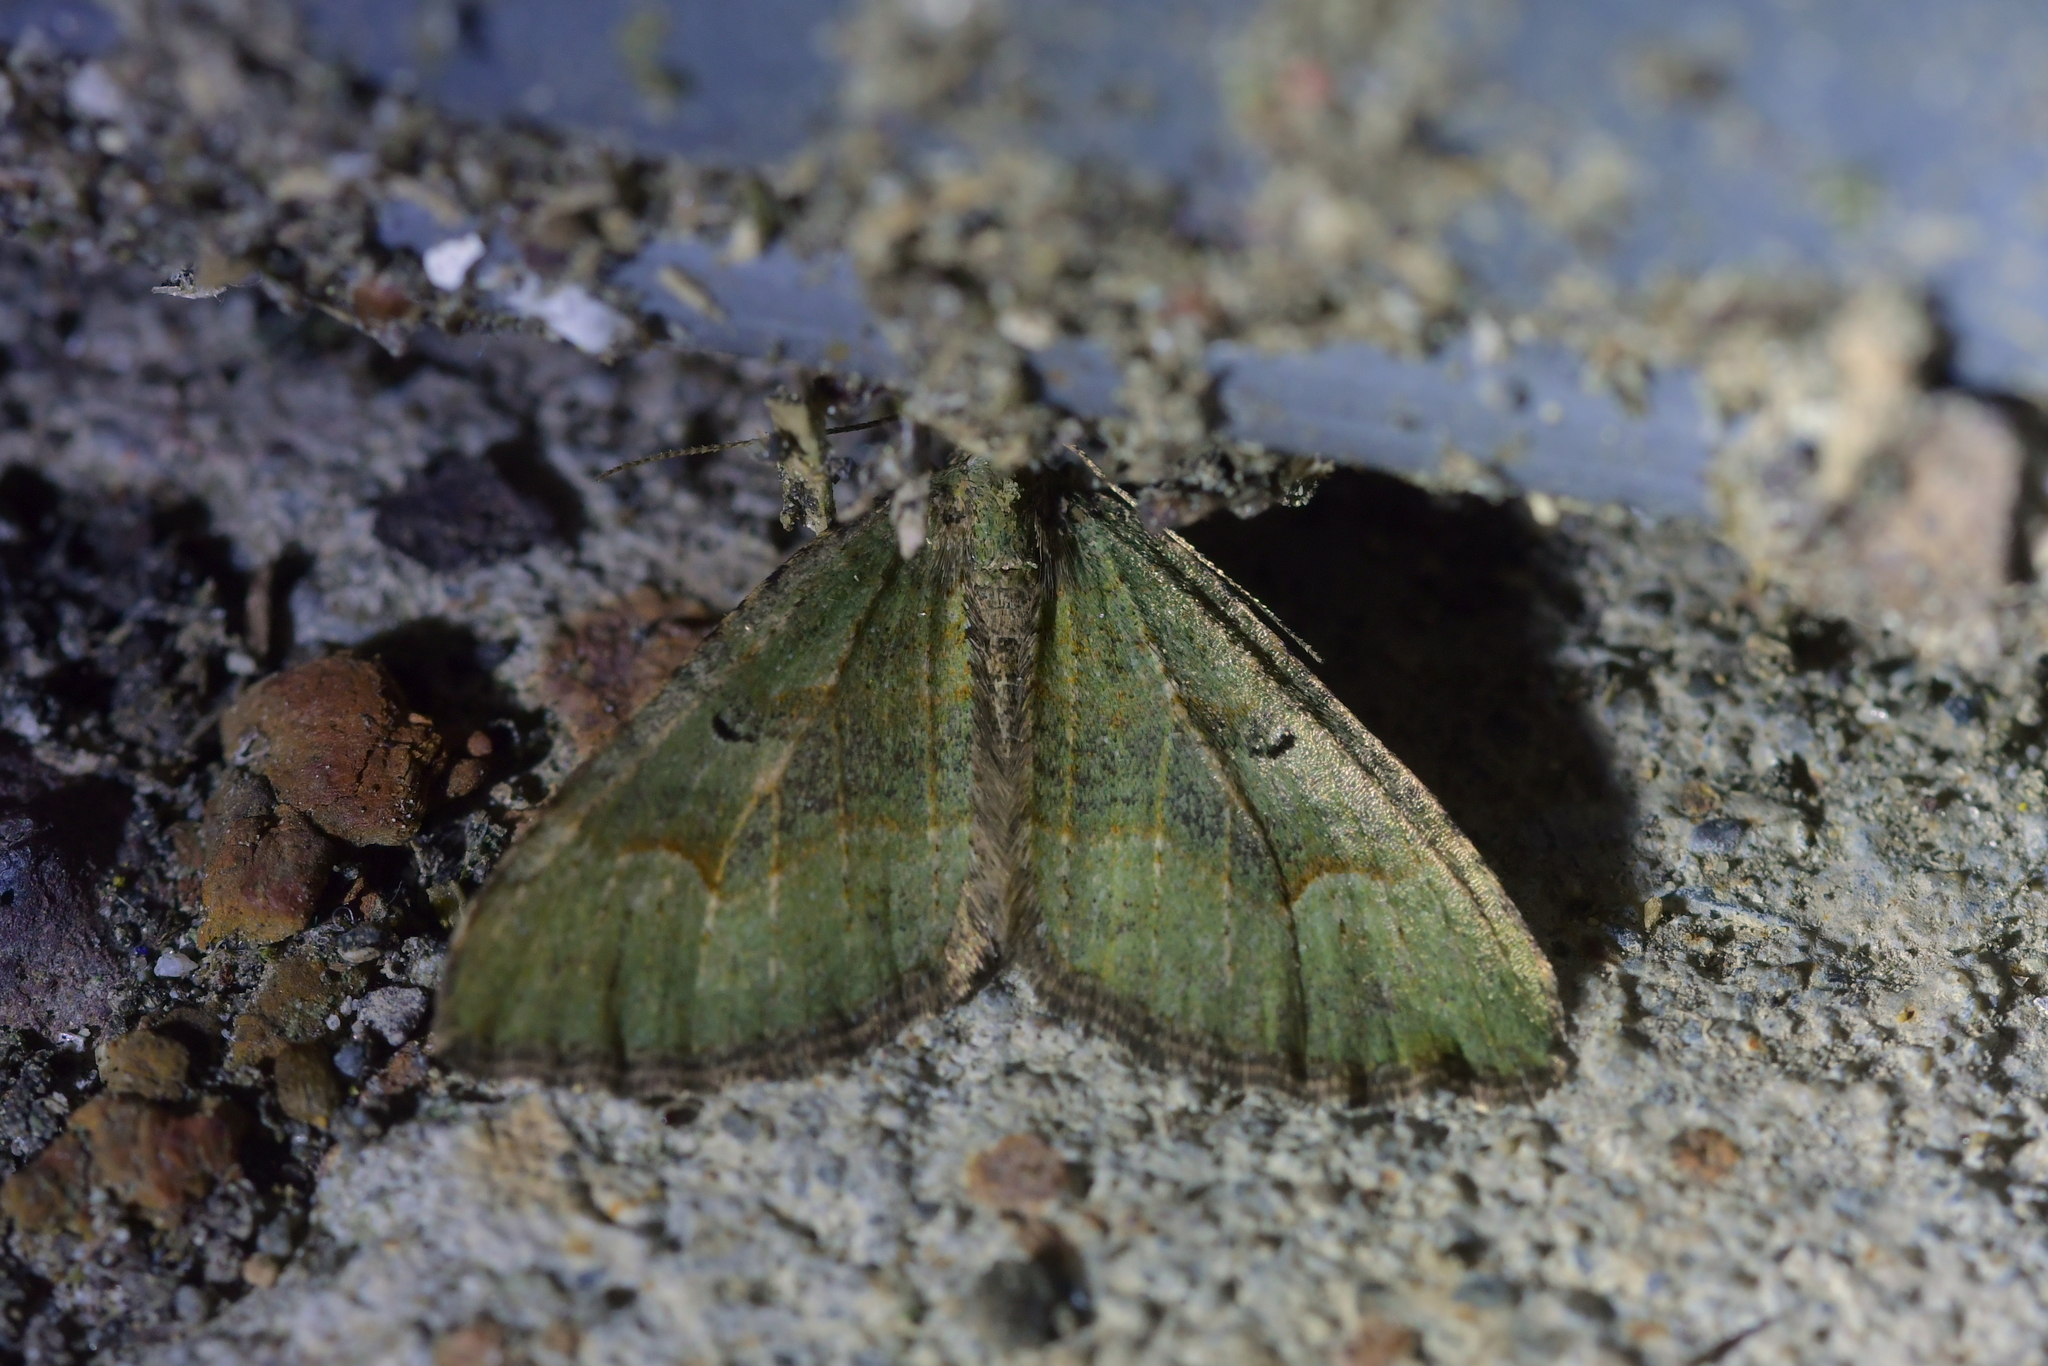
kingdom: Animalia
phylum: Arthropoda
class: Insecta
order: Lepidoptera
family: Geometridae
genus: Epyaxa
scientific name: Epyaxa rosearia
